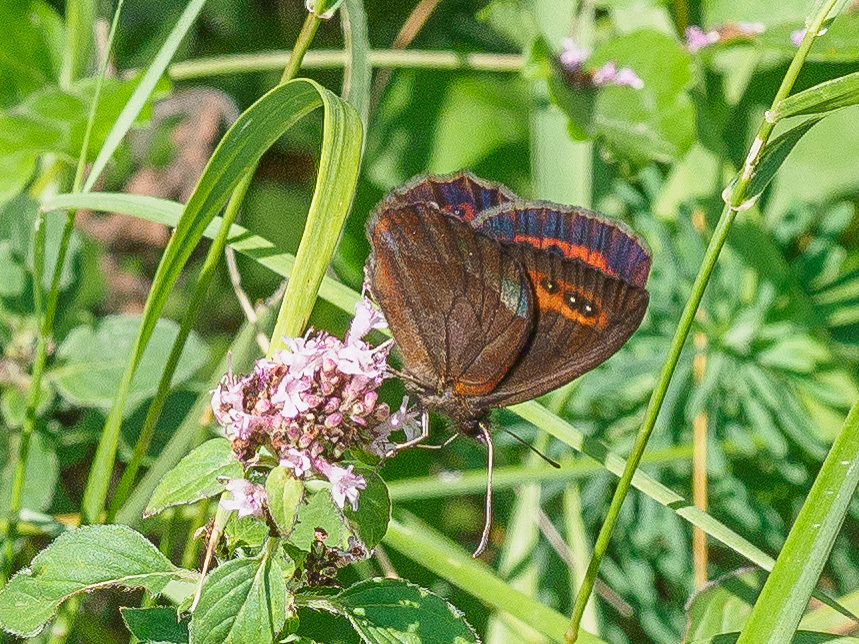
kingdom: Animalia
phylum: Arthropoda
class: Insecta
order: Lepidoptera
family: Nymphalidae
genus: Erebia
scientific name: Erebia aethiops
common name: Scotch argus
